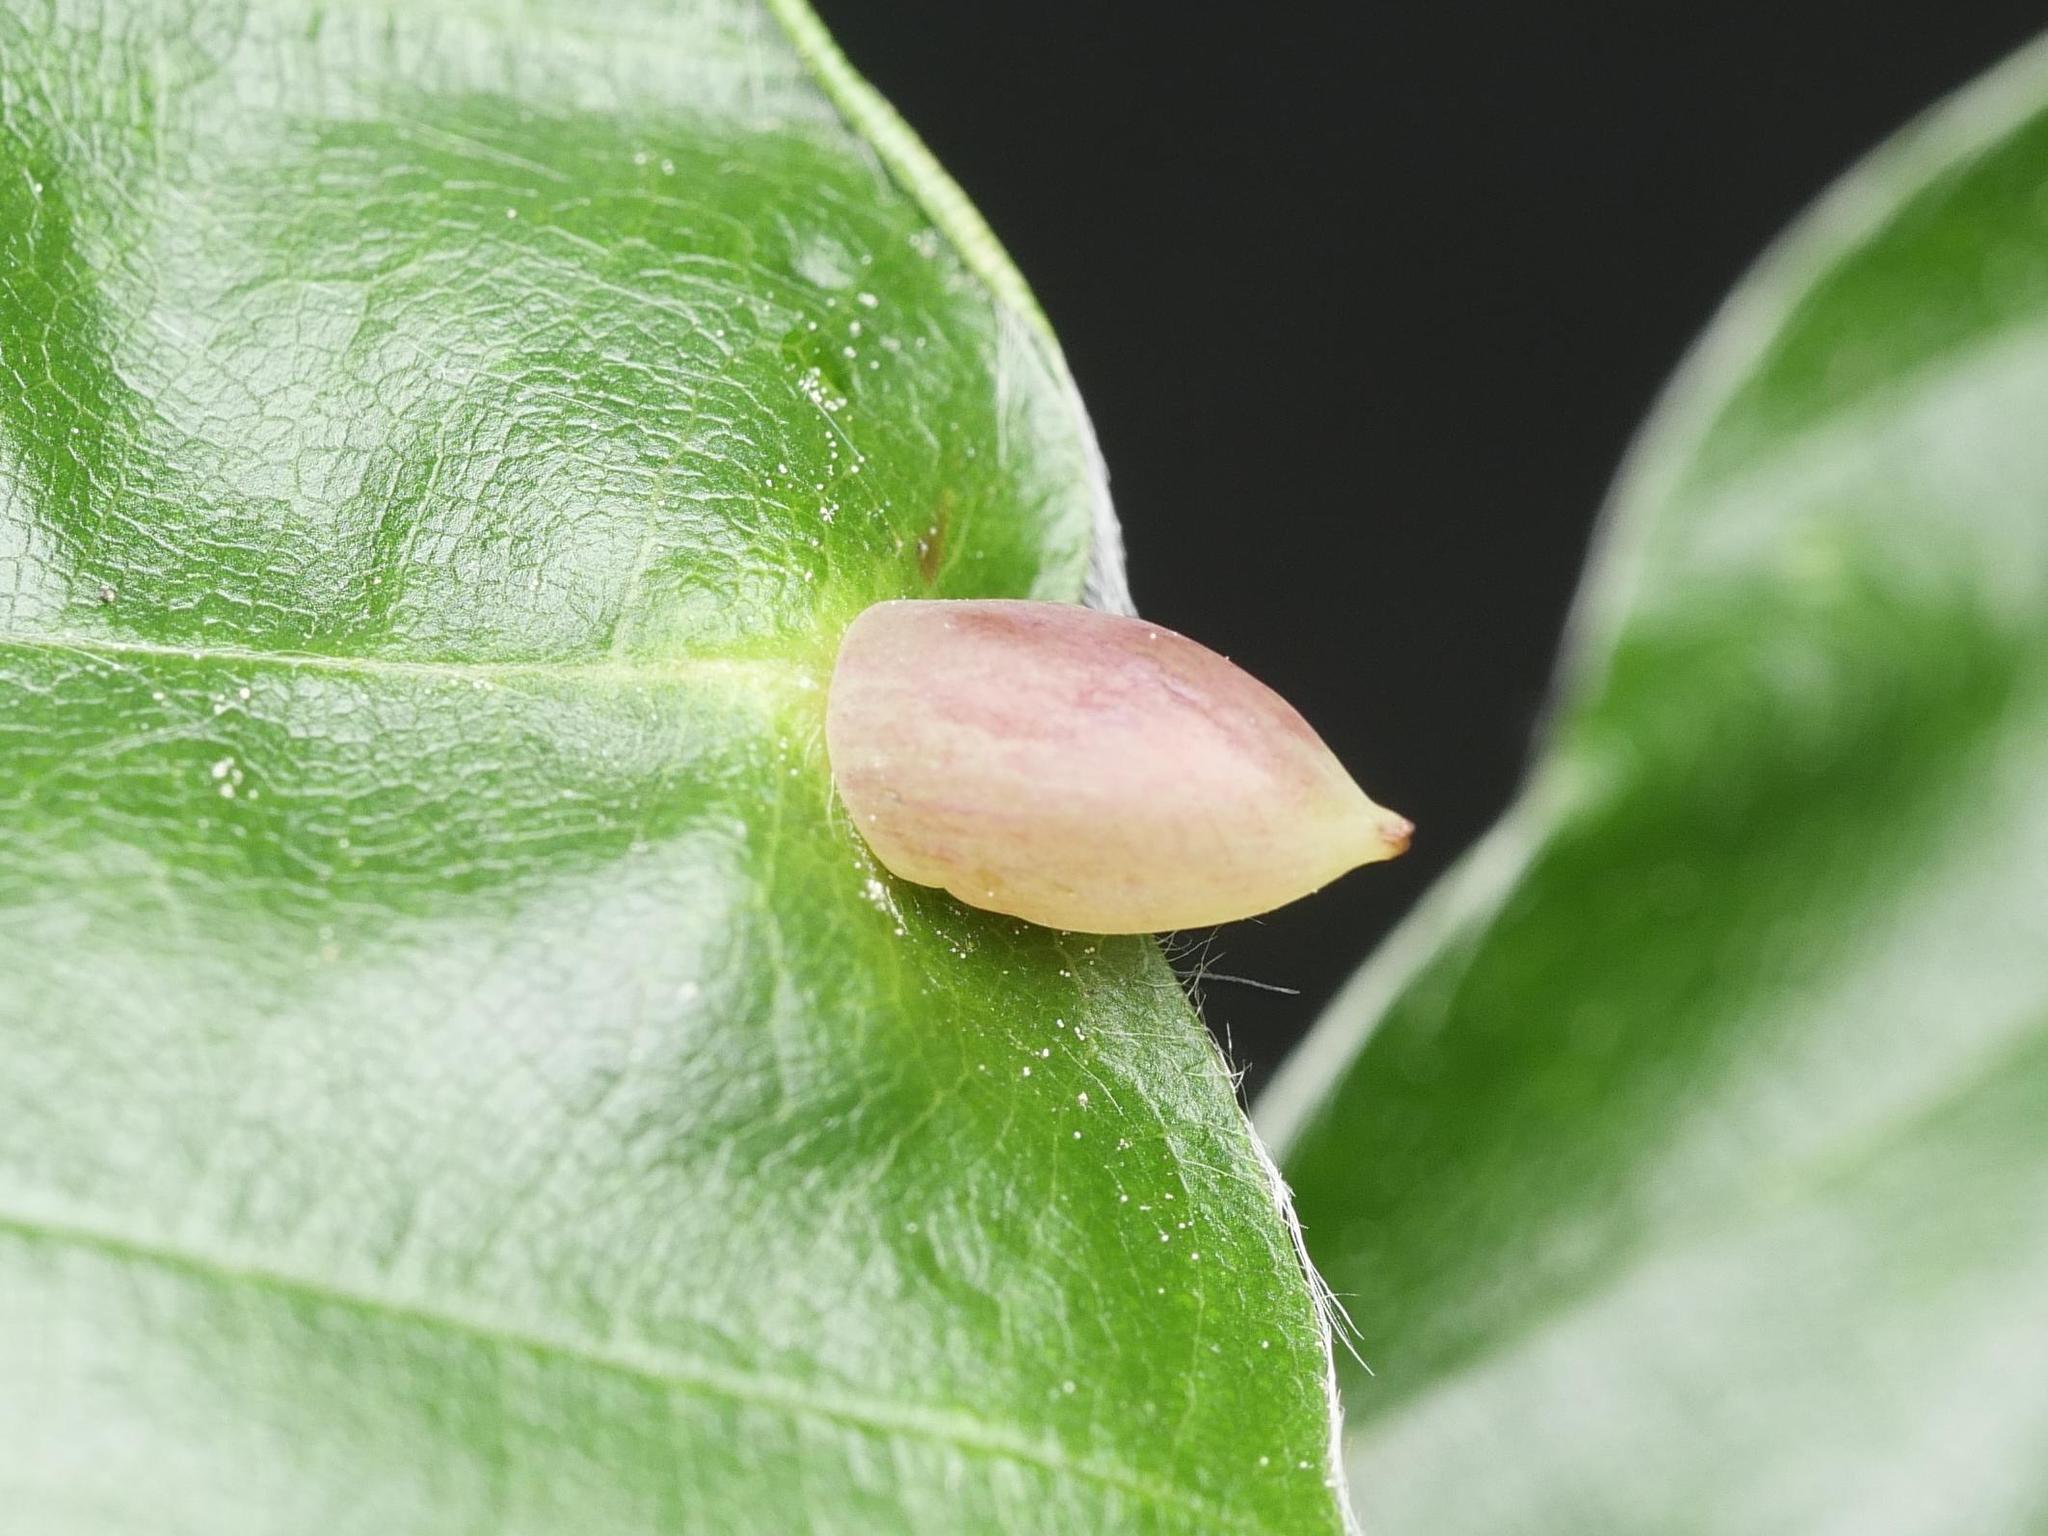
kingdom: Animalia
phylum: Arthropoda
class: Insecta
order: Diptera
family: Cecidomyiidae
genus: Mikiola
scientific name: Mikiola fagi
